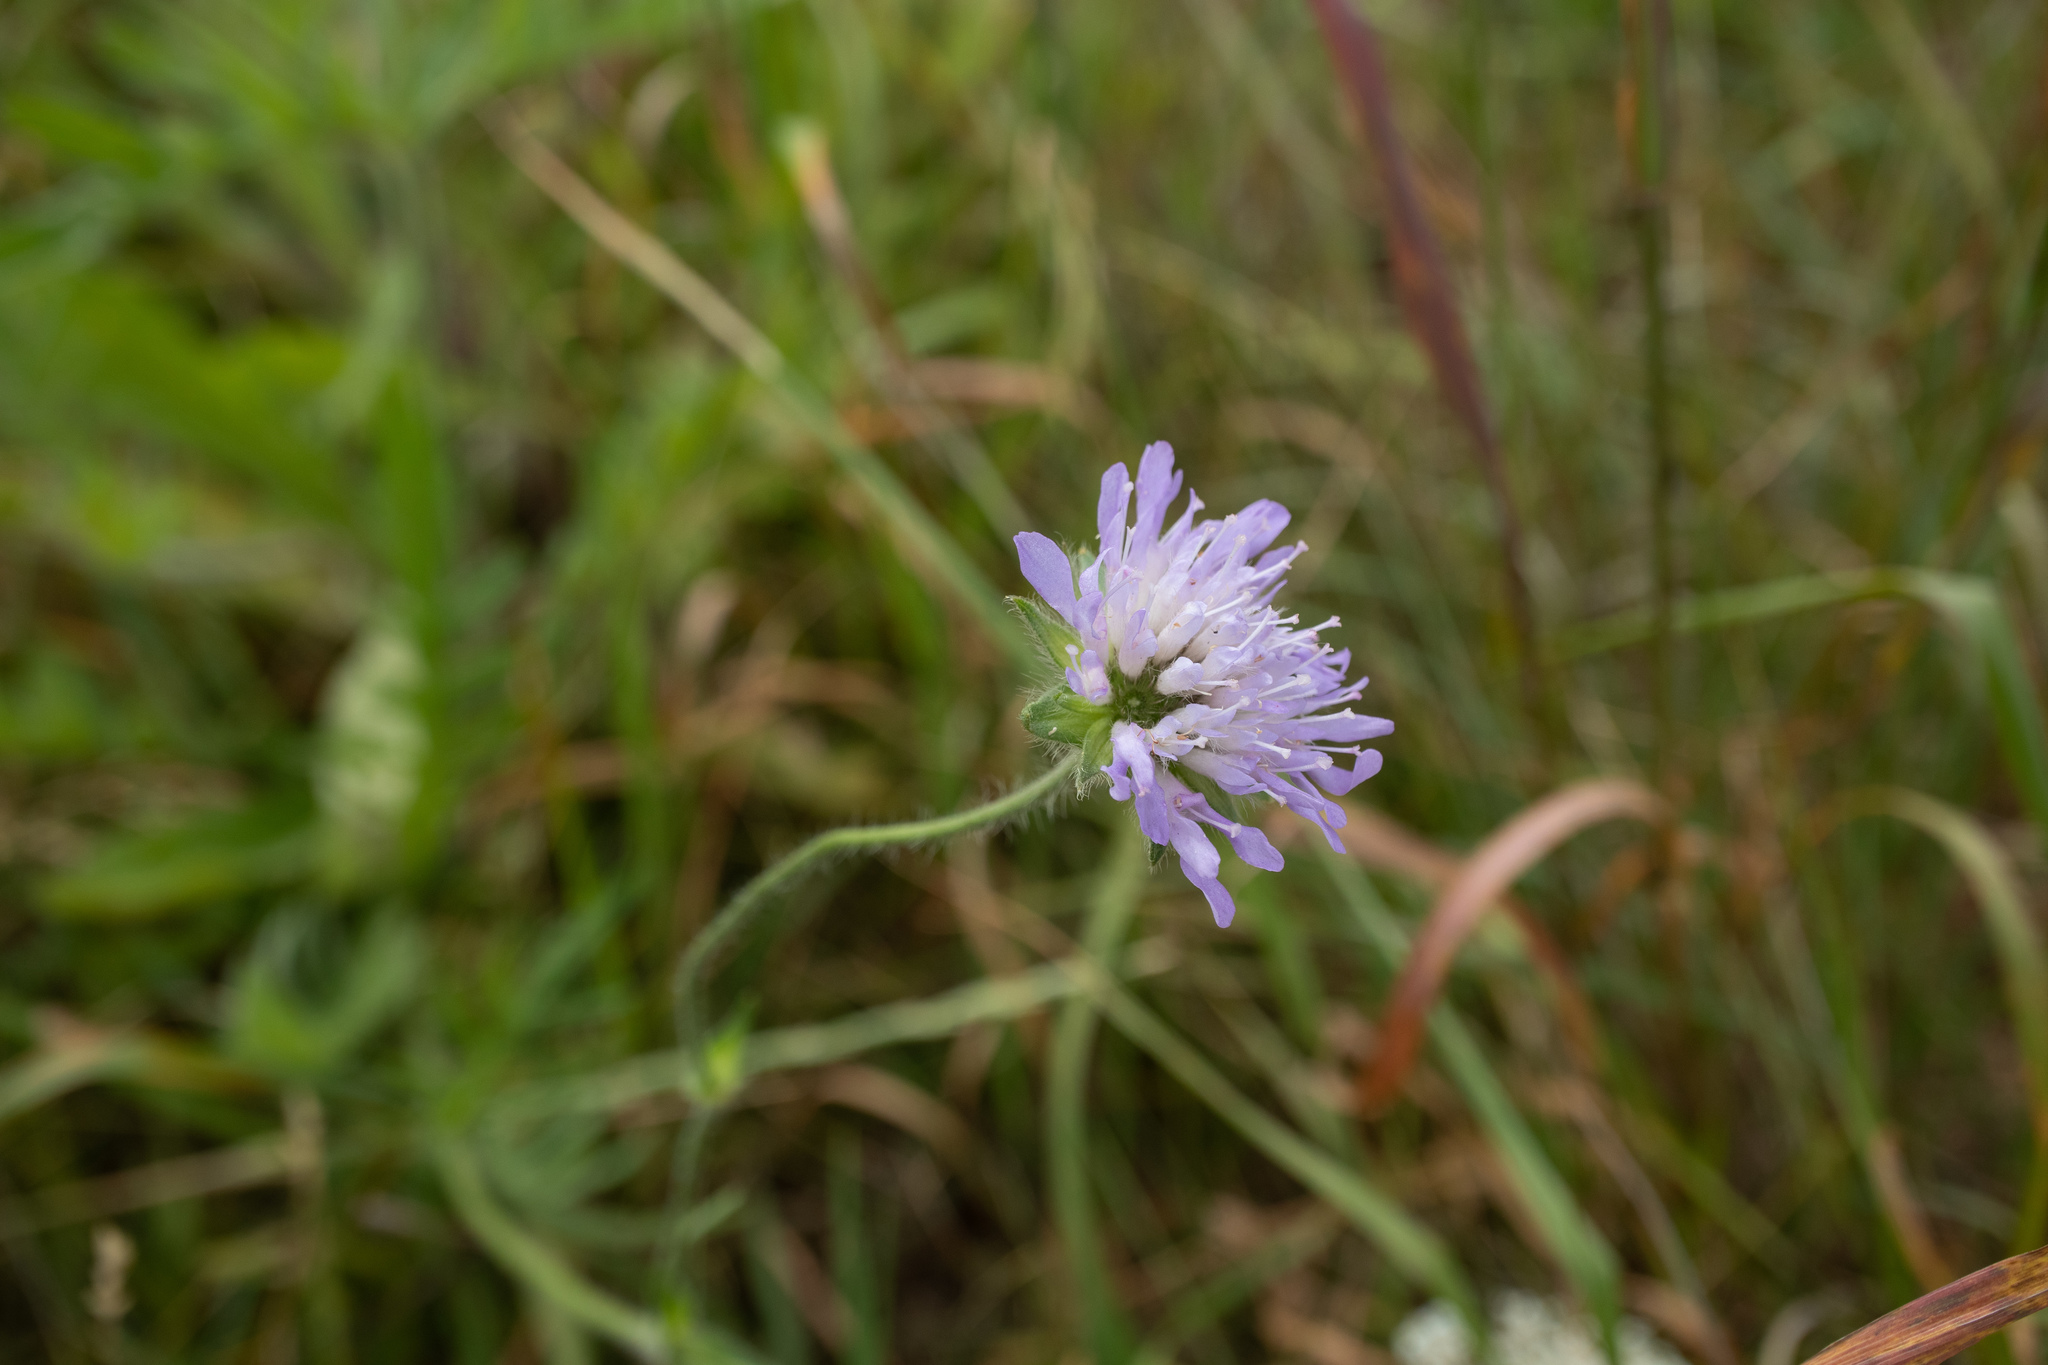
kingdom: Plantae
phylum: Tracheophyta
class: Magnoliopsida
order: Dipsacales
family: Caprifoliaceae
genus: Knautia
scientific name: Knautia arvensis
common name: Field scabiosa
